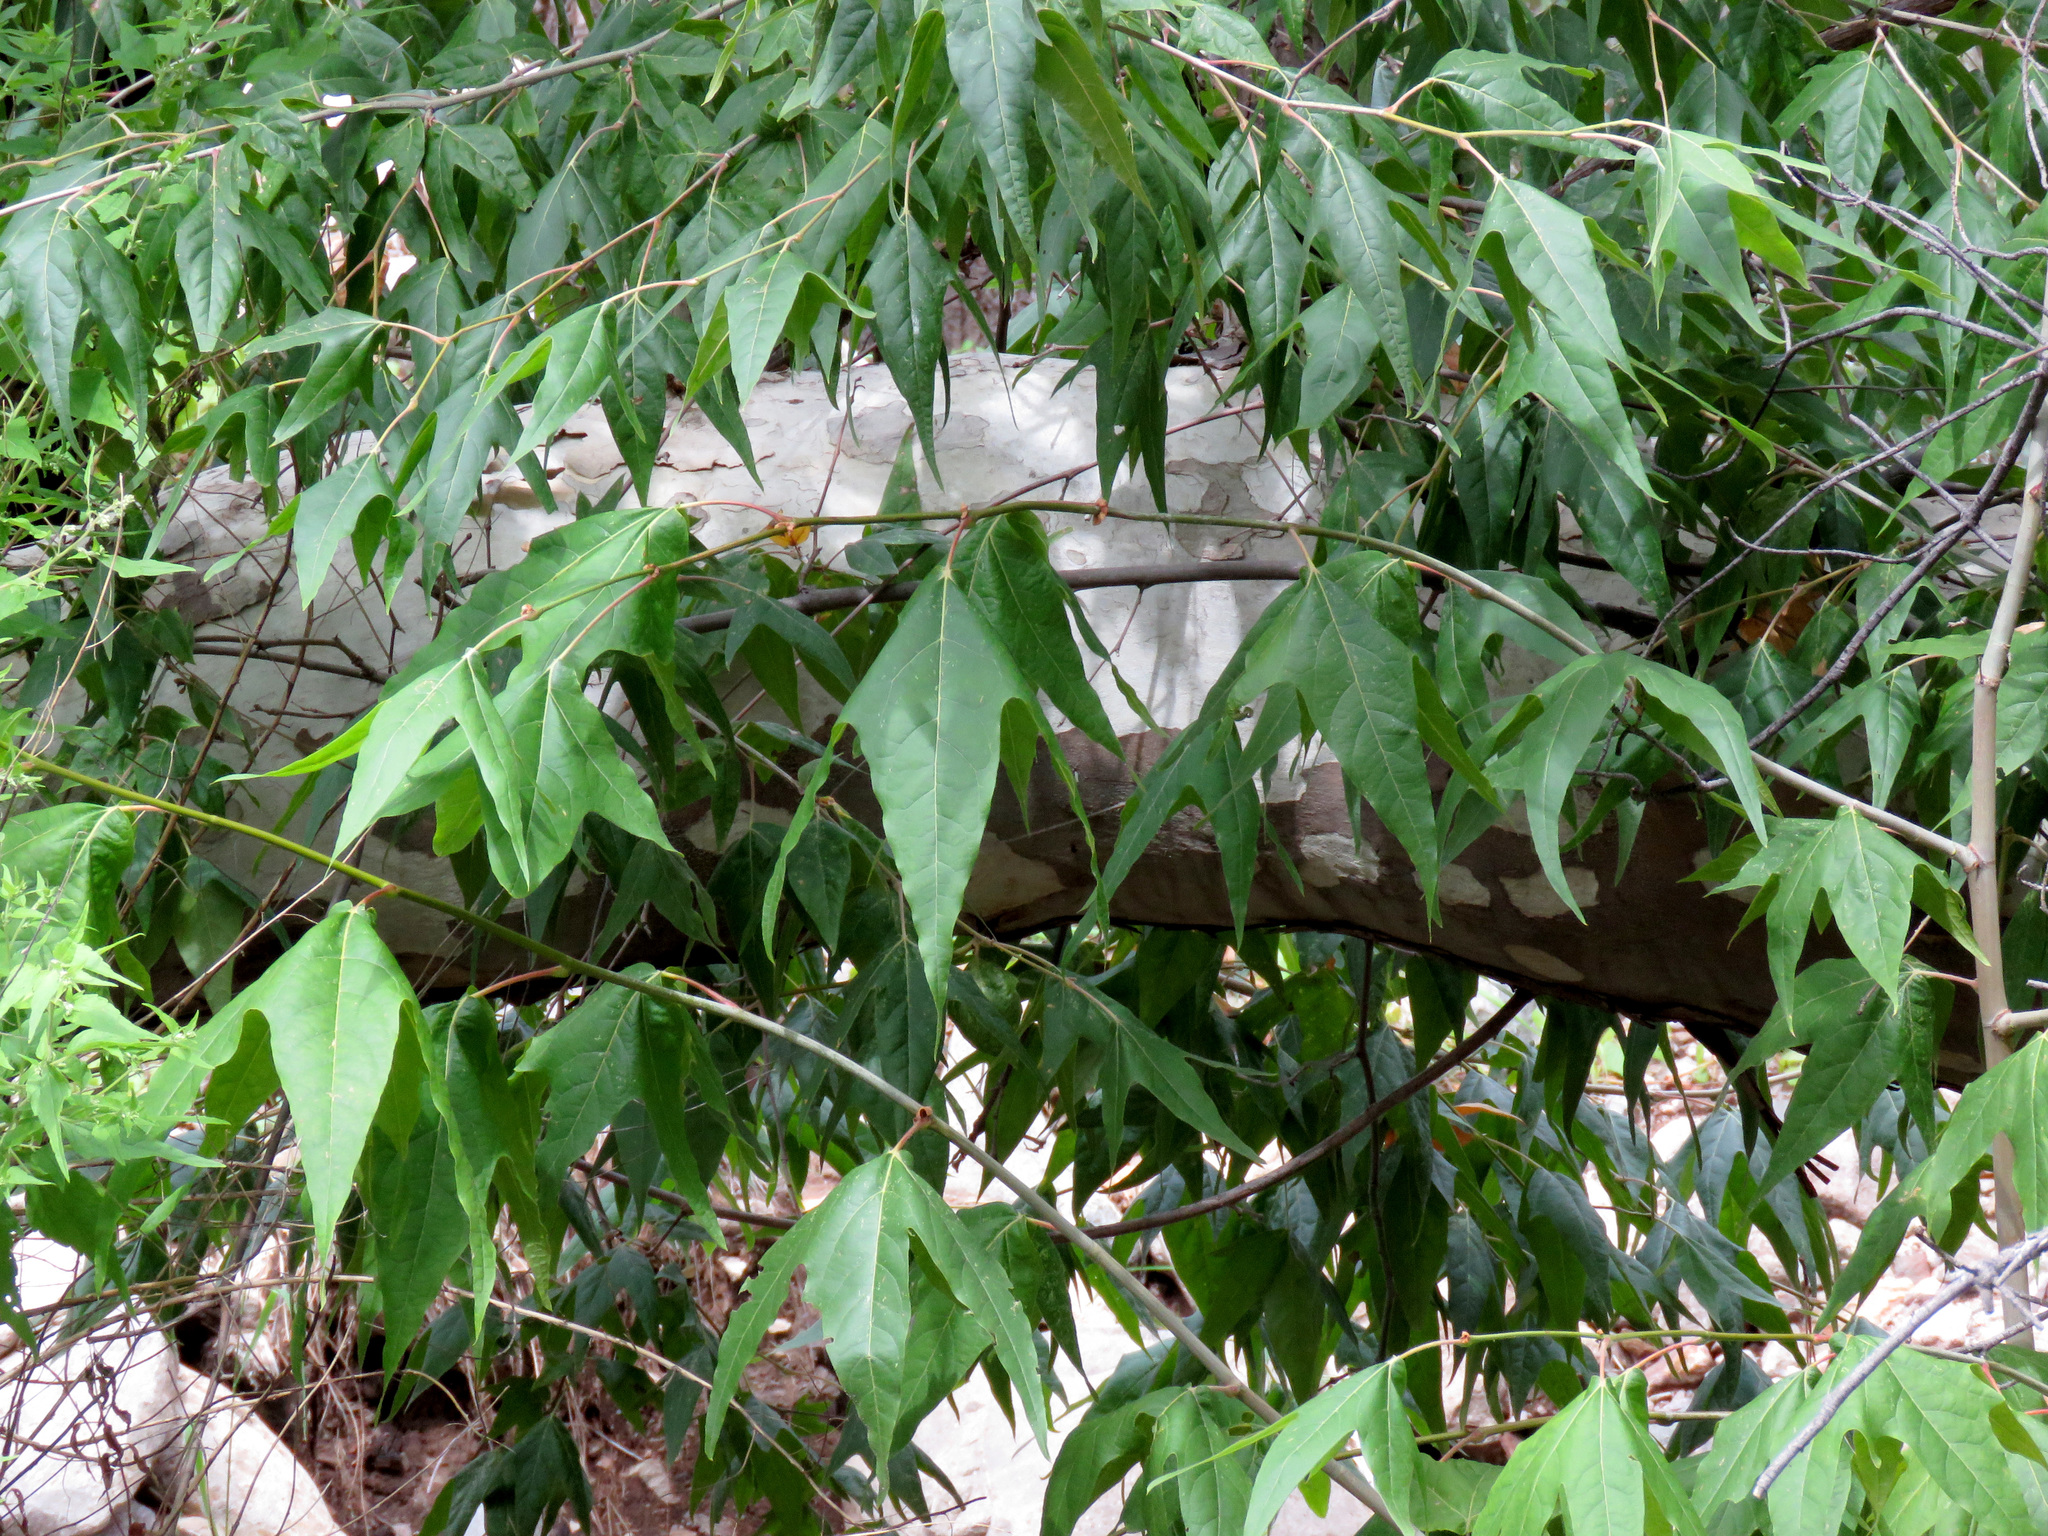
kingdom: Plantae
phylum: Tracheophyta
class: Magnoliopsida
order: Proteales
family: Platanaceae
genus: Platanus
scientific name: Platanus wrightii
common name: Arizona sycamore
